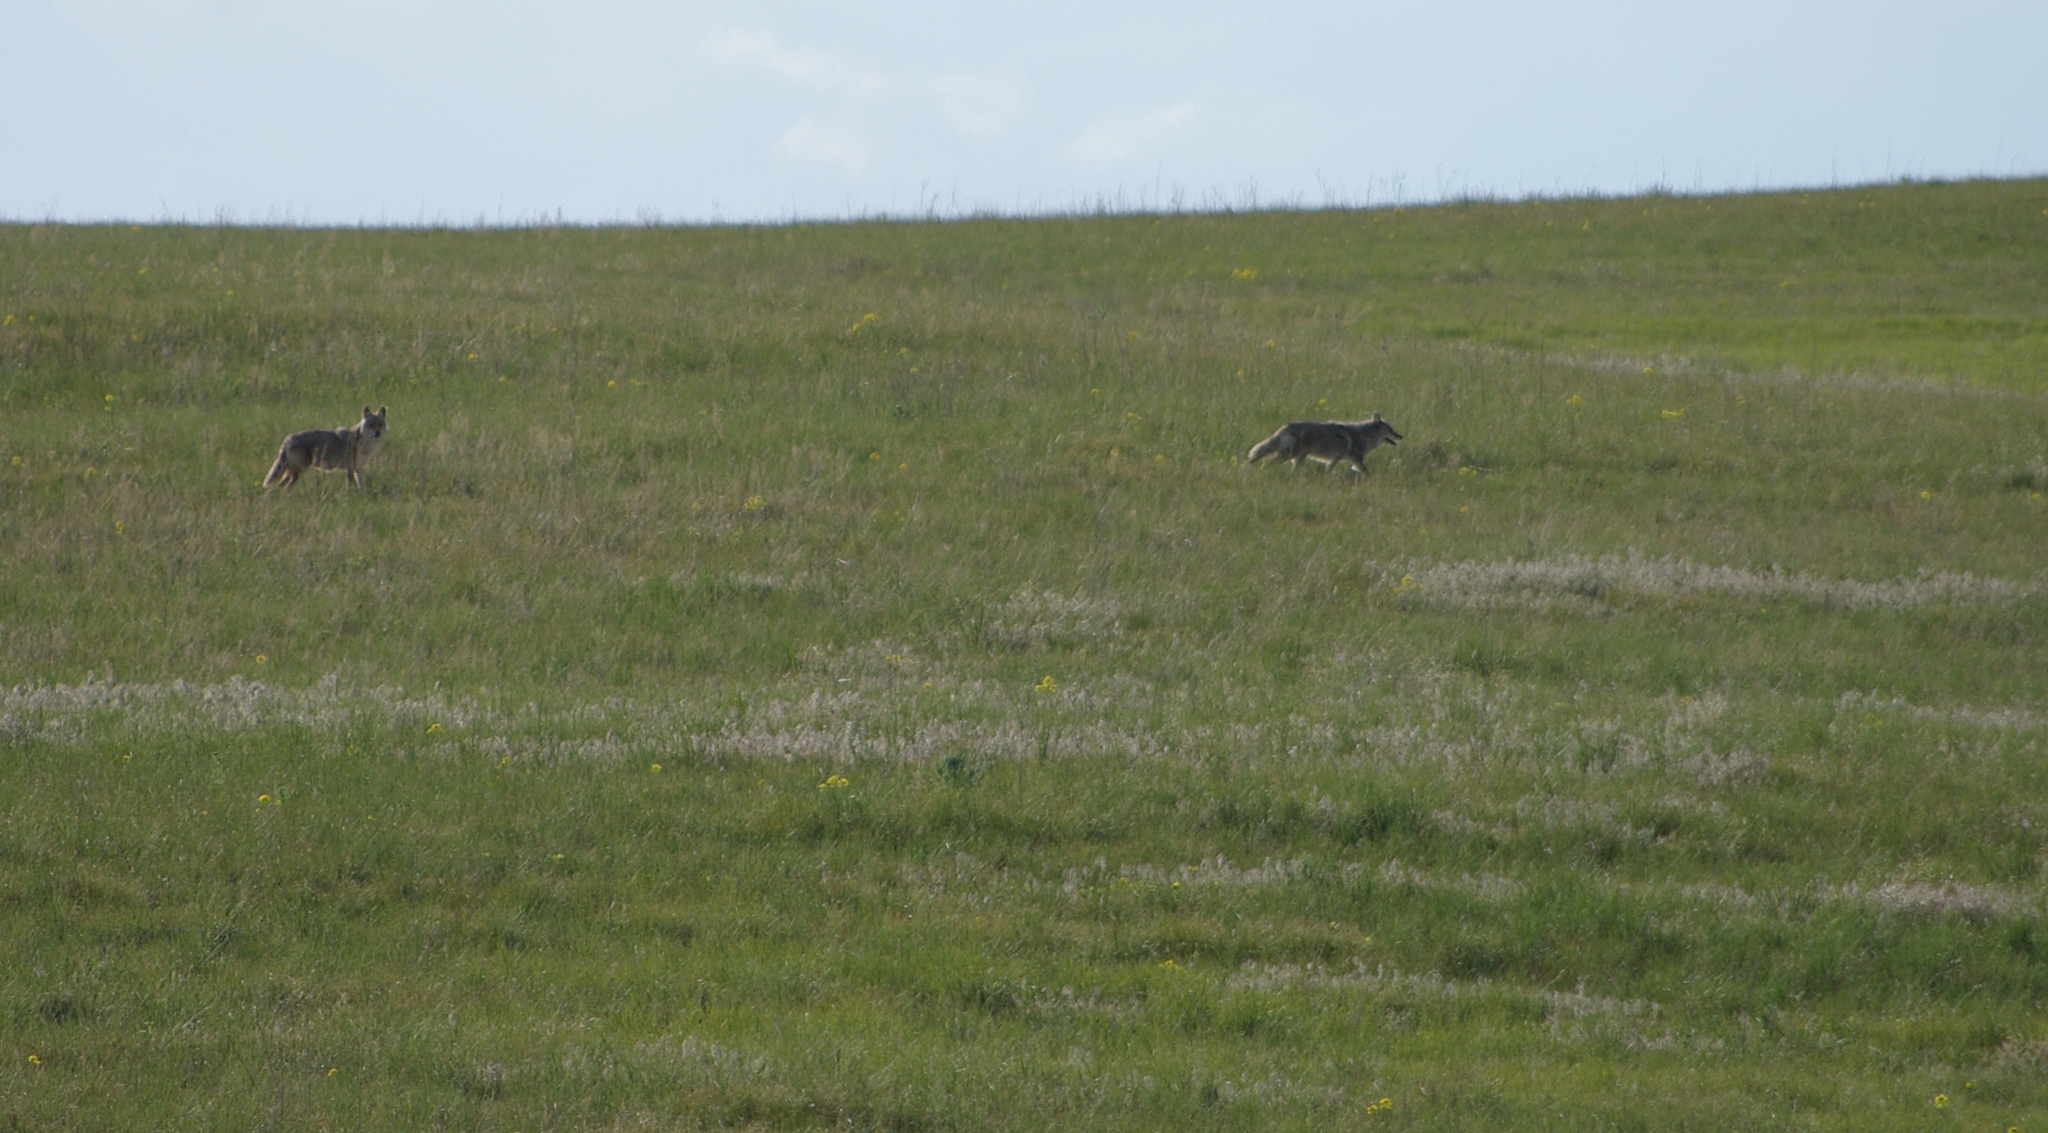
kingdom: Animalia
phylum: Chordata
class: Mammalia
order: Carnivora
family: Canidae
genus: Canis
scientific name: Canis latrans
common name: Coyote
